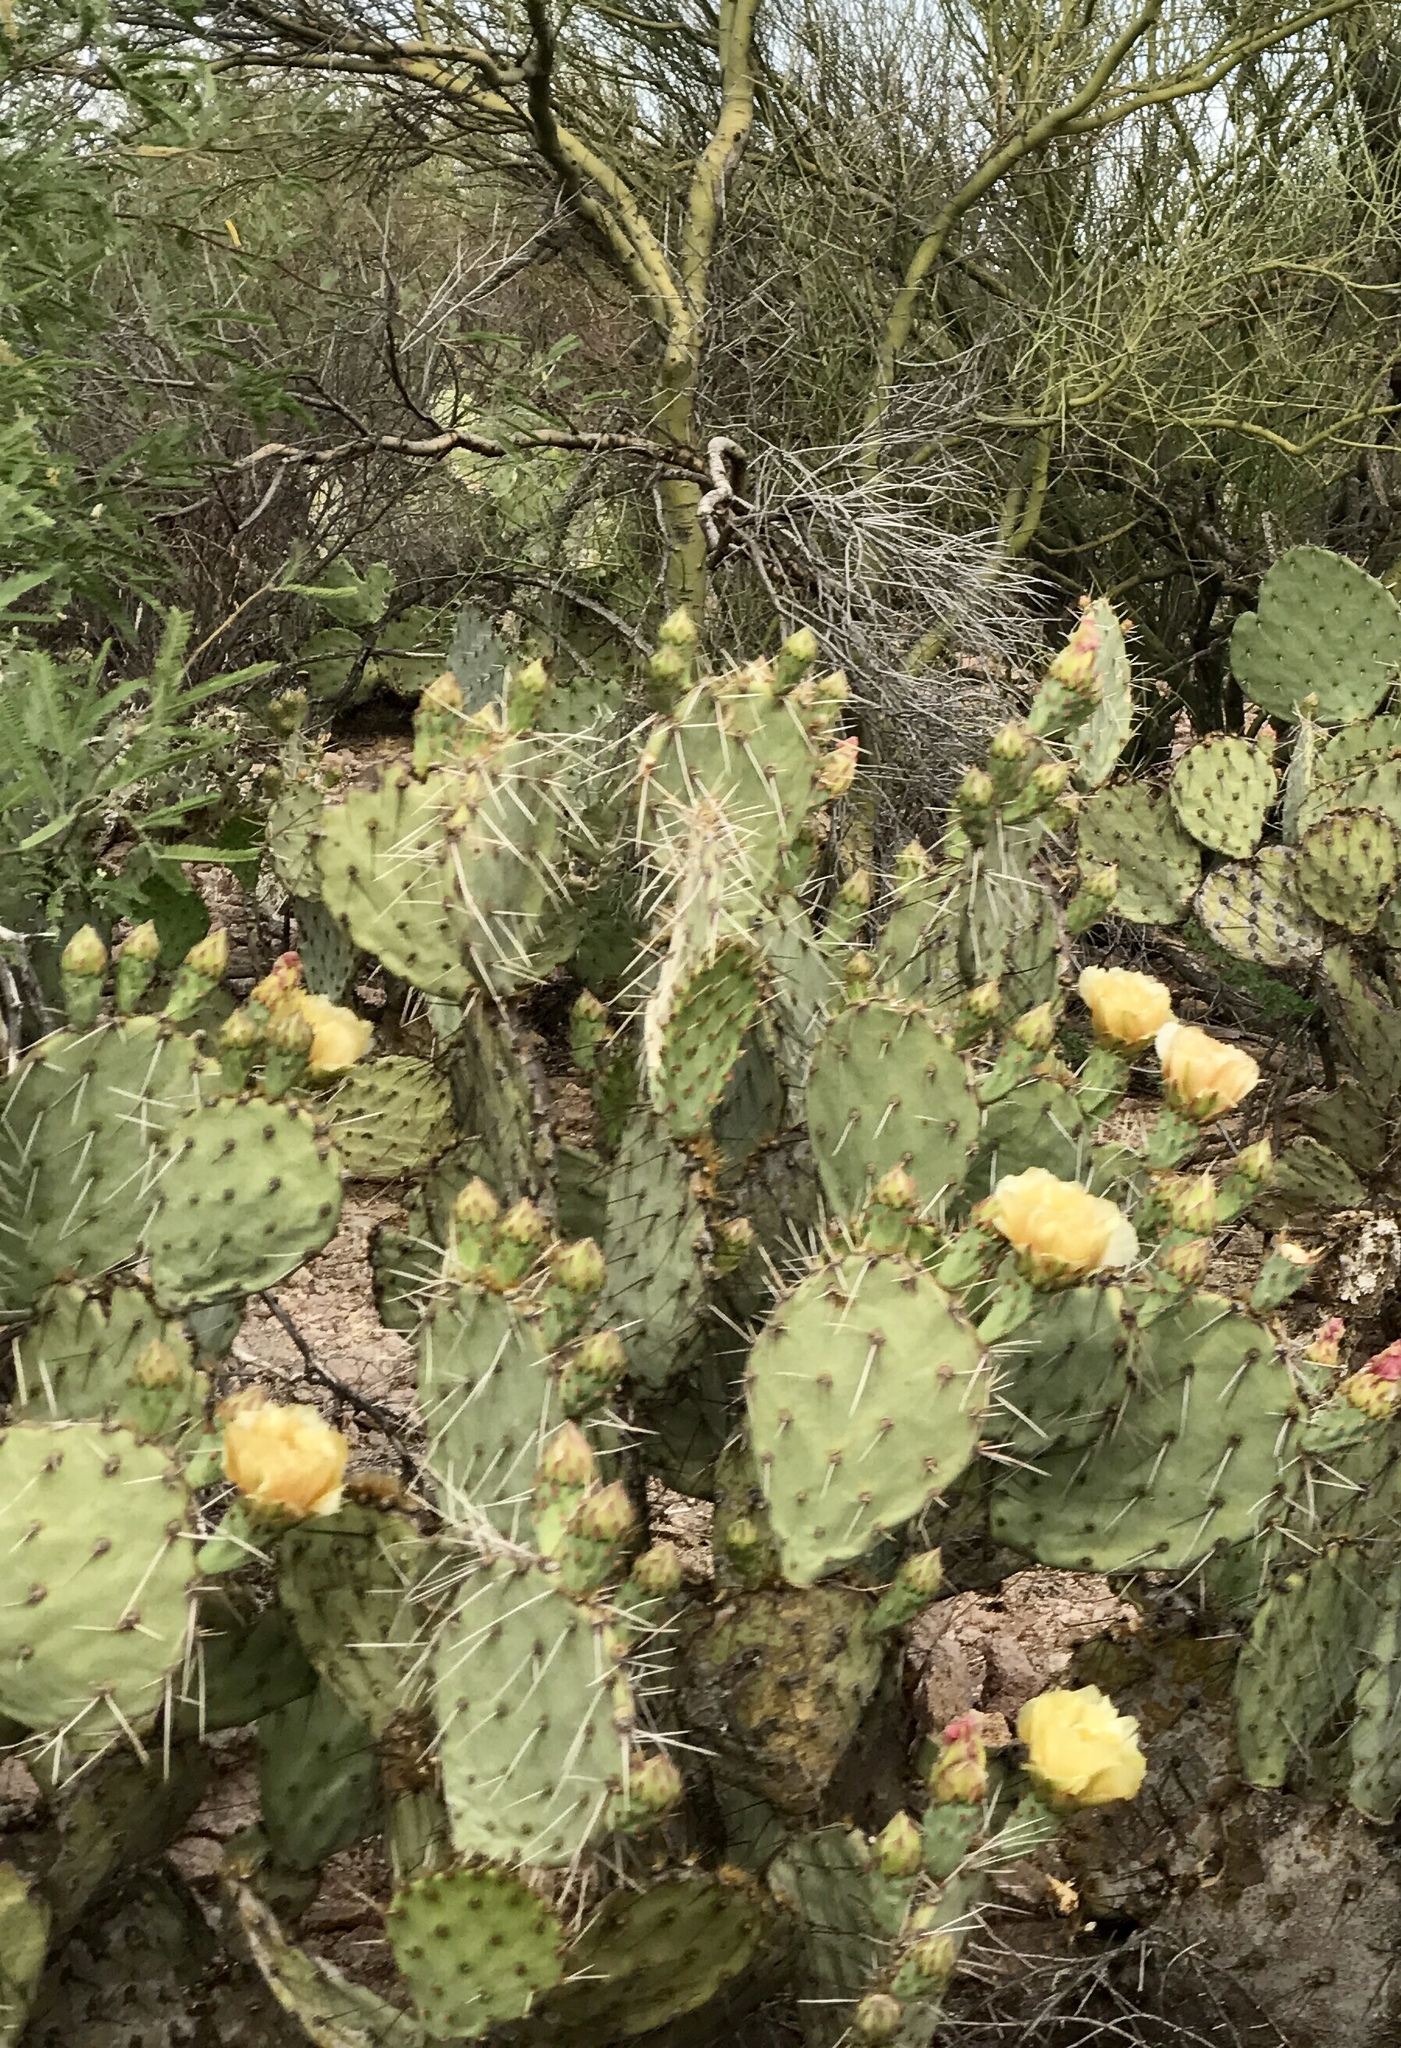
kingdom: Plantae
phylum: Tracheophyta
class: Magnoliopsida
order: Caryophyllales
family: Cactaceae
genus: Opuntia
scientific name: Opuntia engelmannii
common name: Cactus-apple
